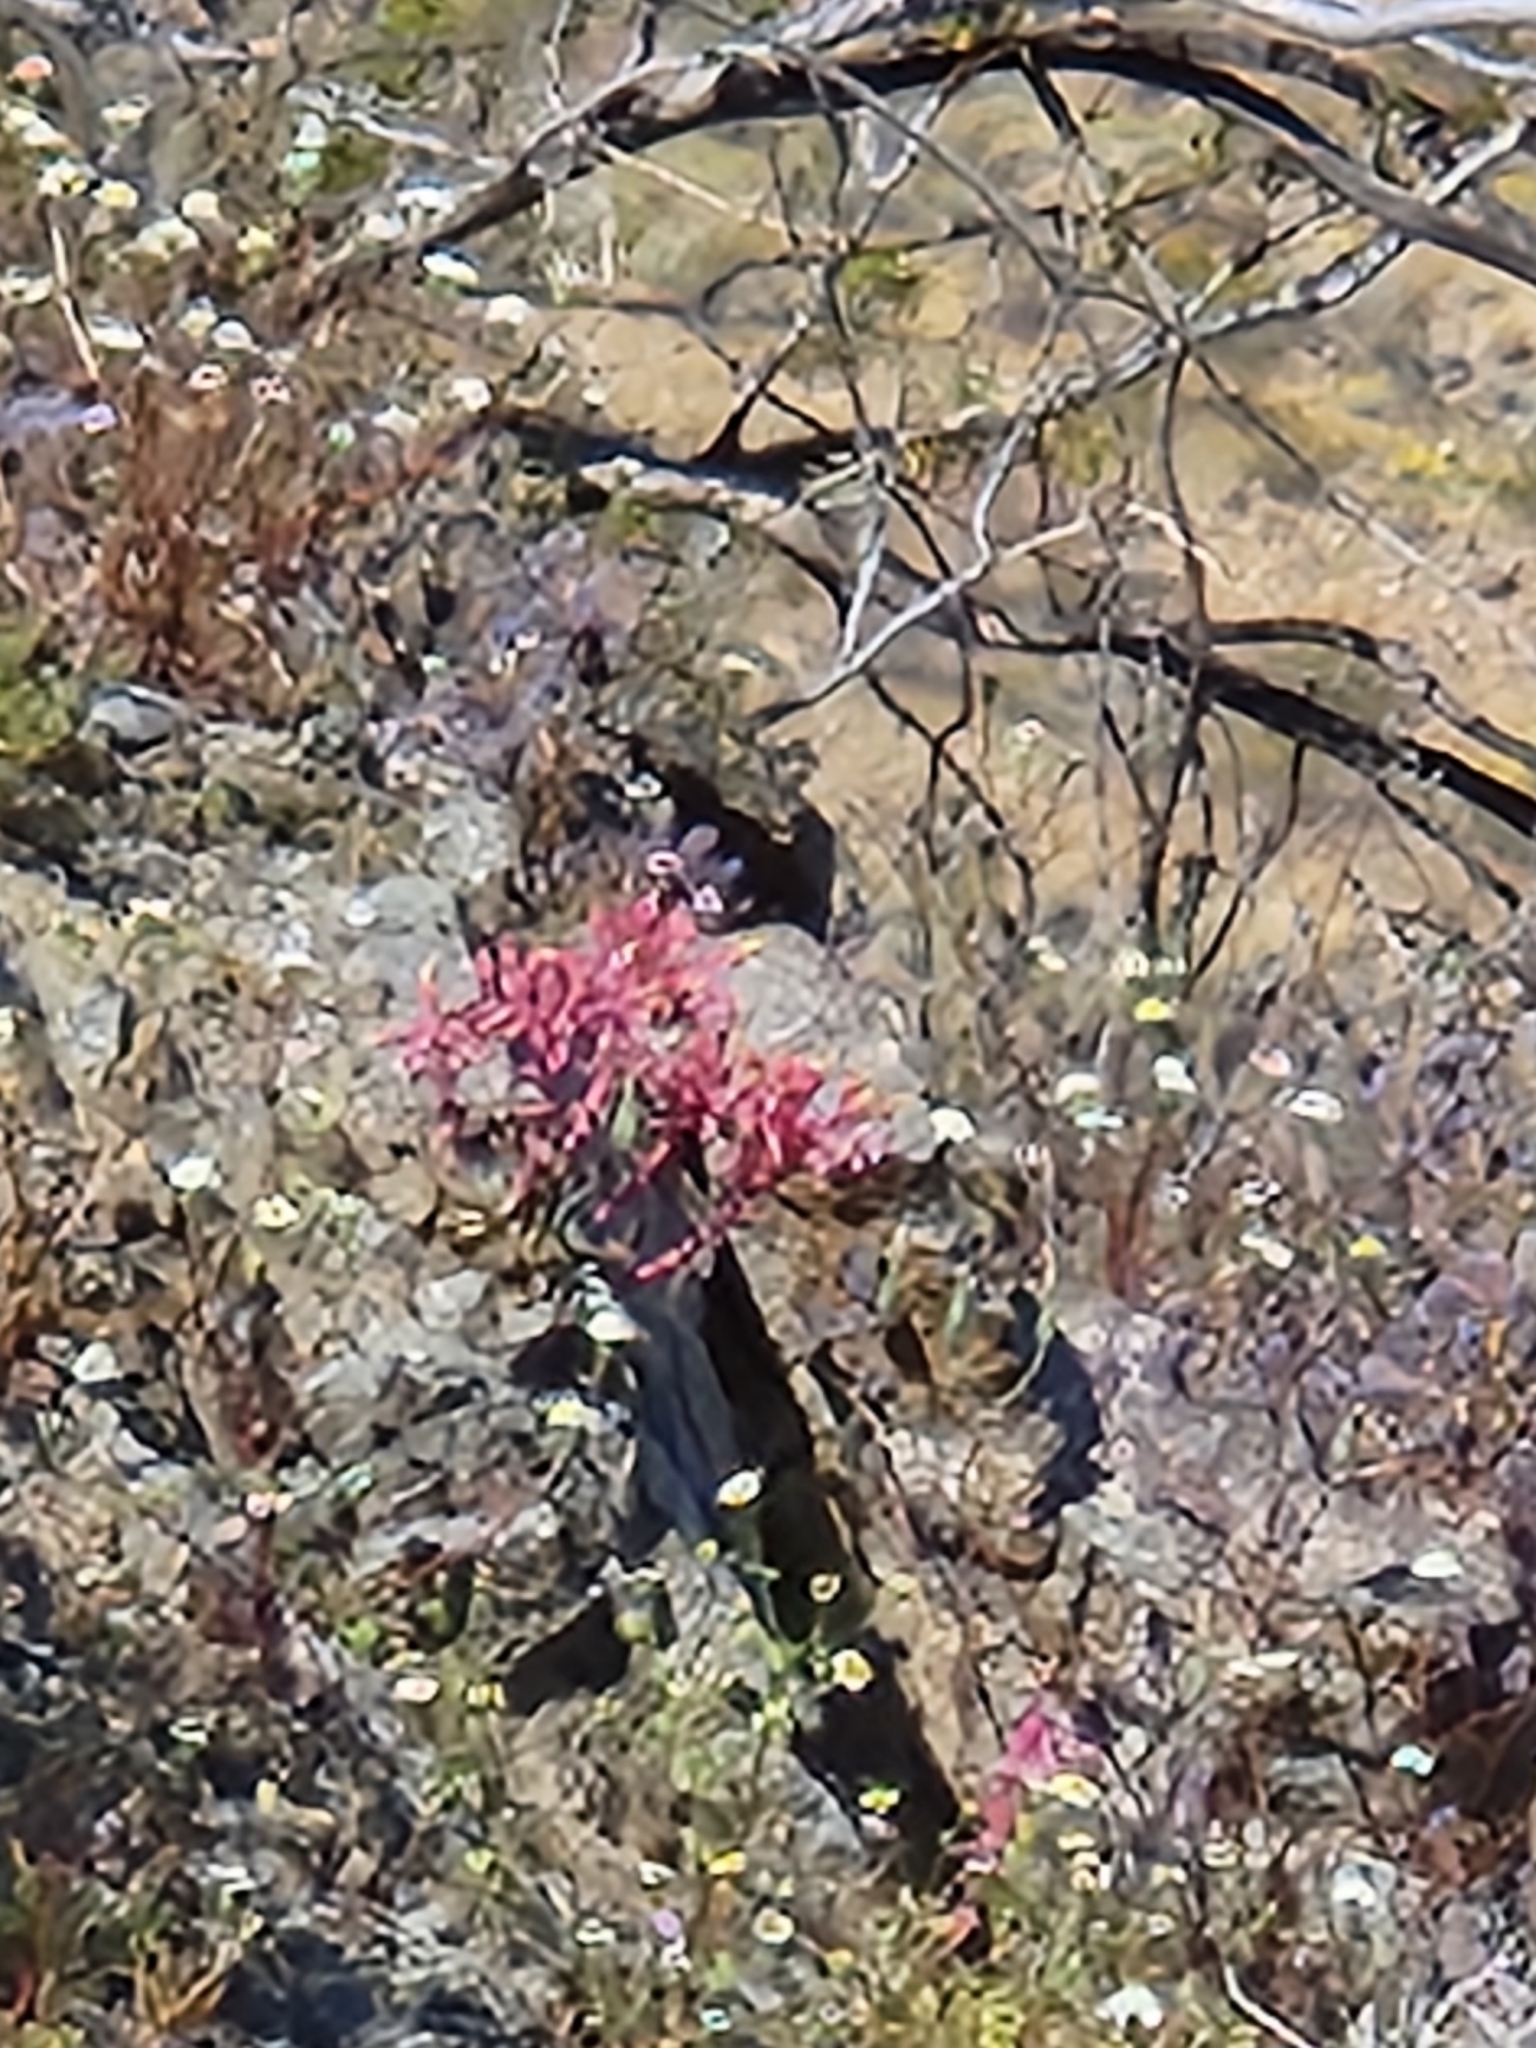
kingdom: Plantae
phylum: Tracheophyta
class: Magnoliopsida
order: Saxifragales
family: Crassulaceae
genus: Dudleya
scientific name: Dudleya saxosa
